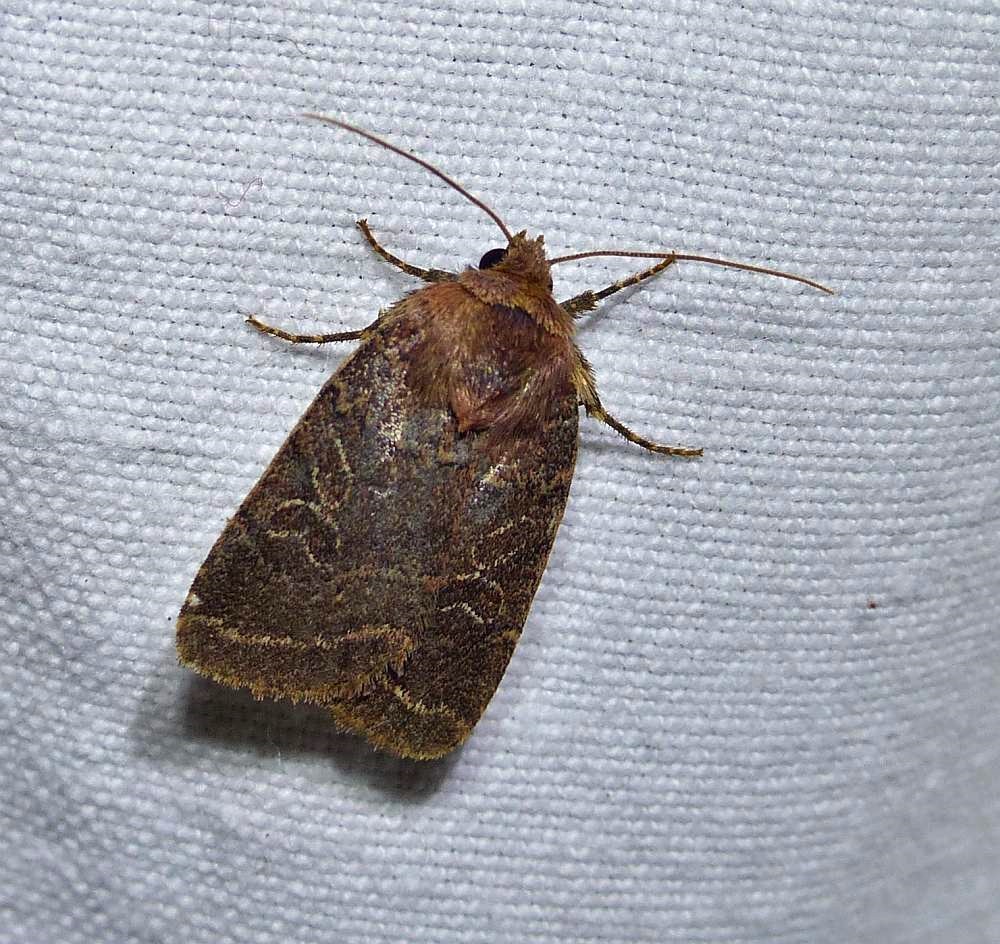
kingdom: Animalia
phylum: Arthropoda
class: Insecta
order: Lepidoptera
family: Noctuidae
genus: Orthodes
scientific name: Orthodes cynica
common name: Cynical quaker
